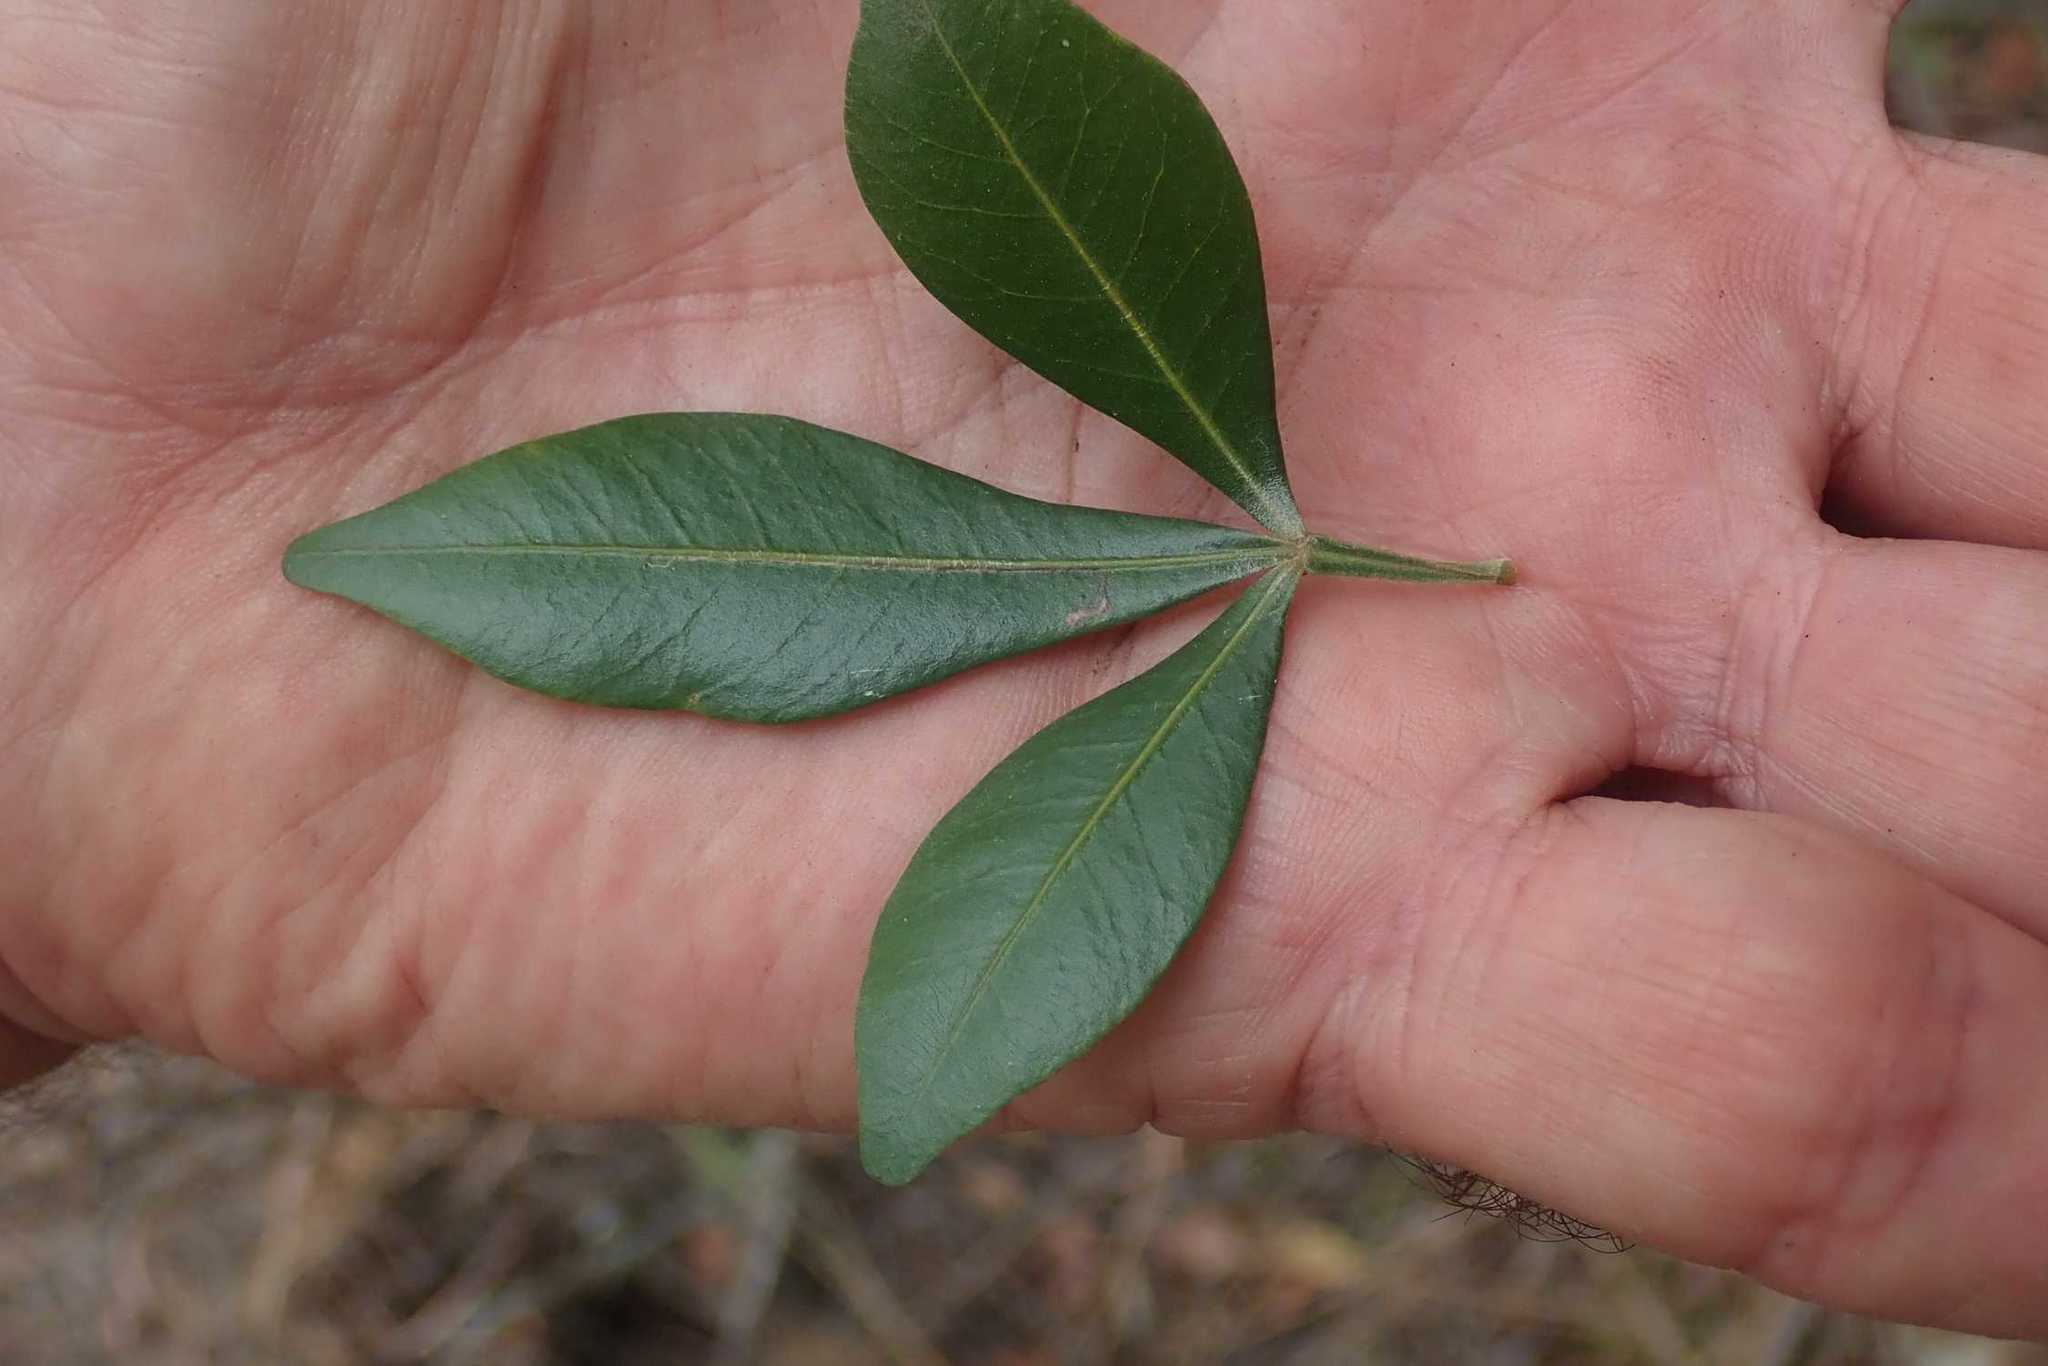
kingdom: Plantae
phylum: Tracheophyta
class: Magnoliopsida
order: Sapindales
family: Anacardiaceae
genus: Searsia
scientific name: Searsia lucida
